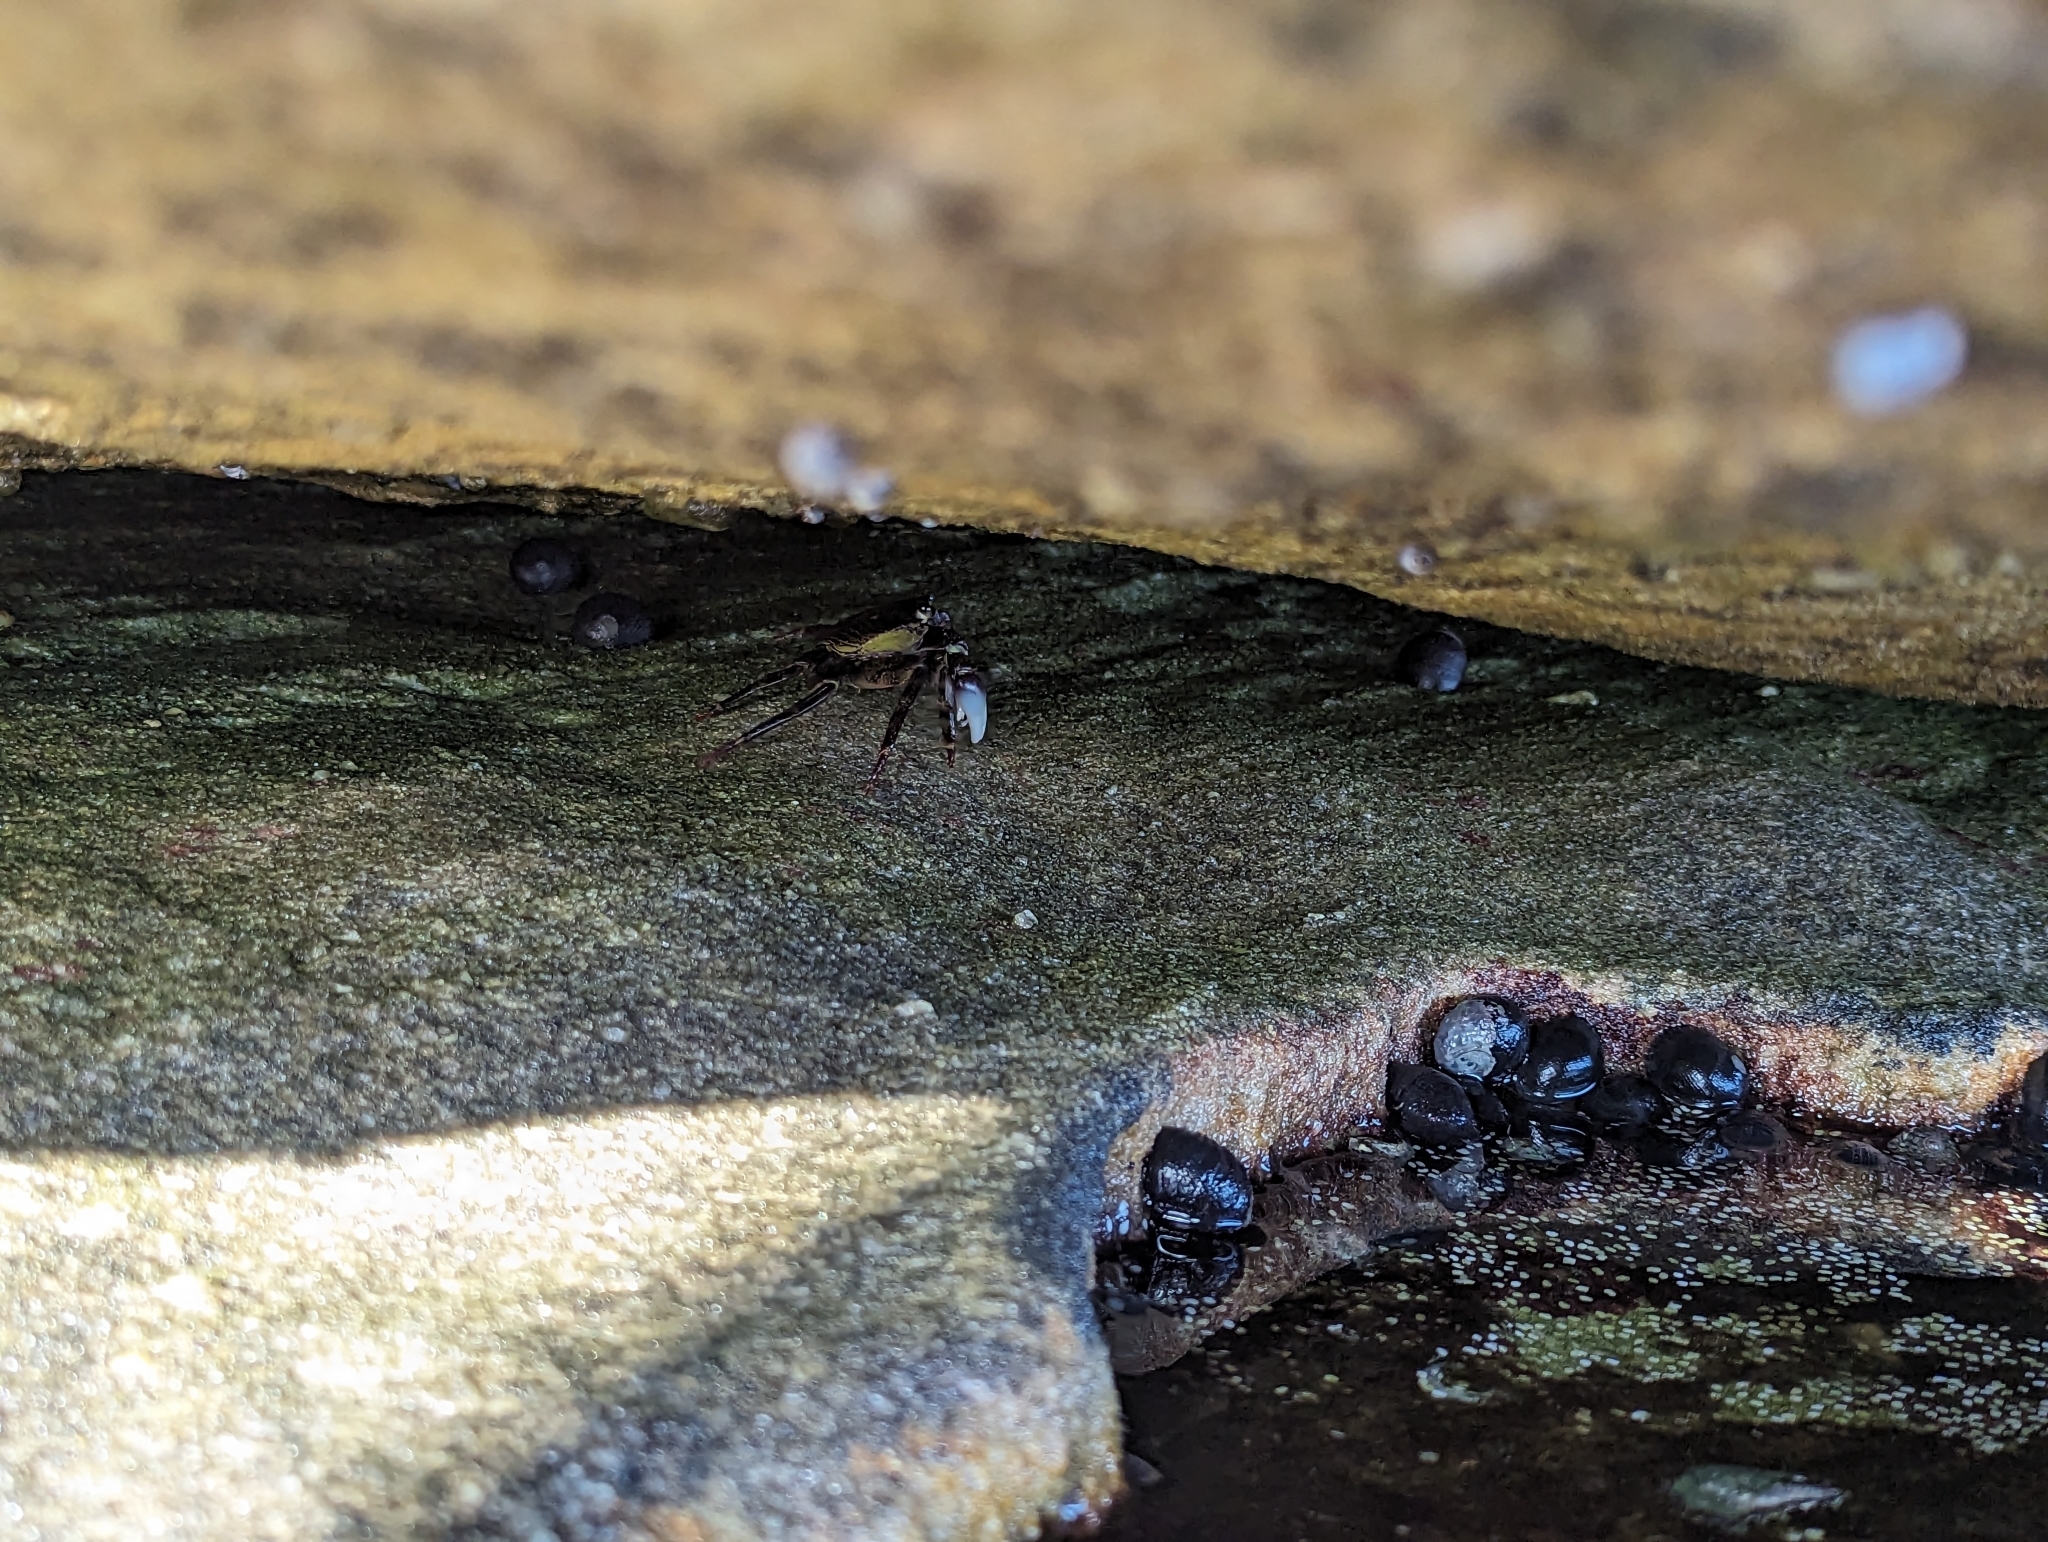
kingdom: Animalia
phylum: Arthropoda
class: Malacostraca
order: Decapoda
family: Grapsidae
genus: Leptograpsus
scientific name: Leptograpsus variegatus
